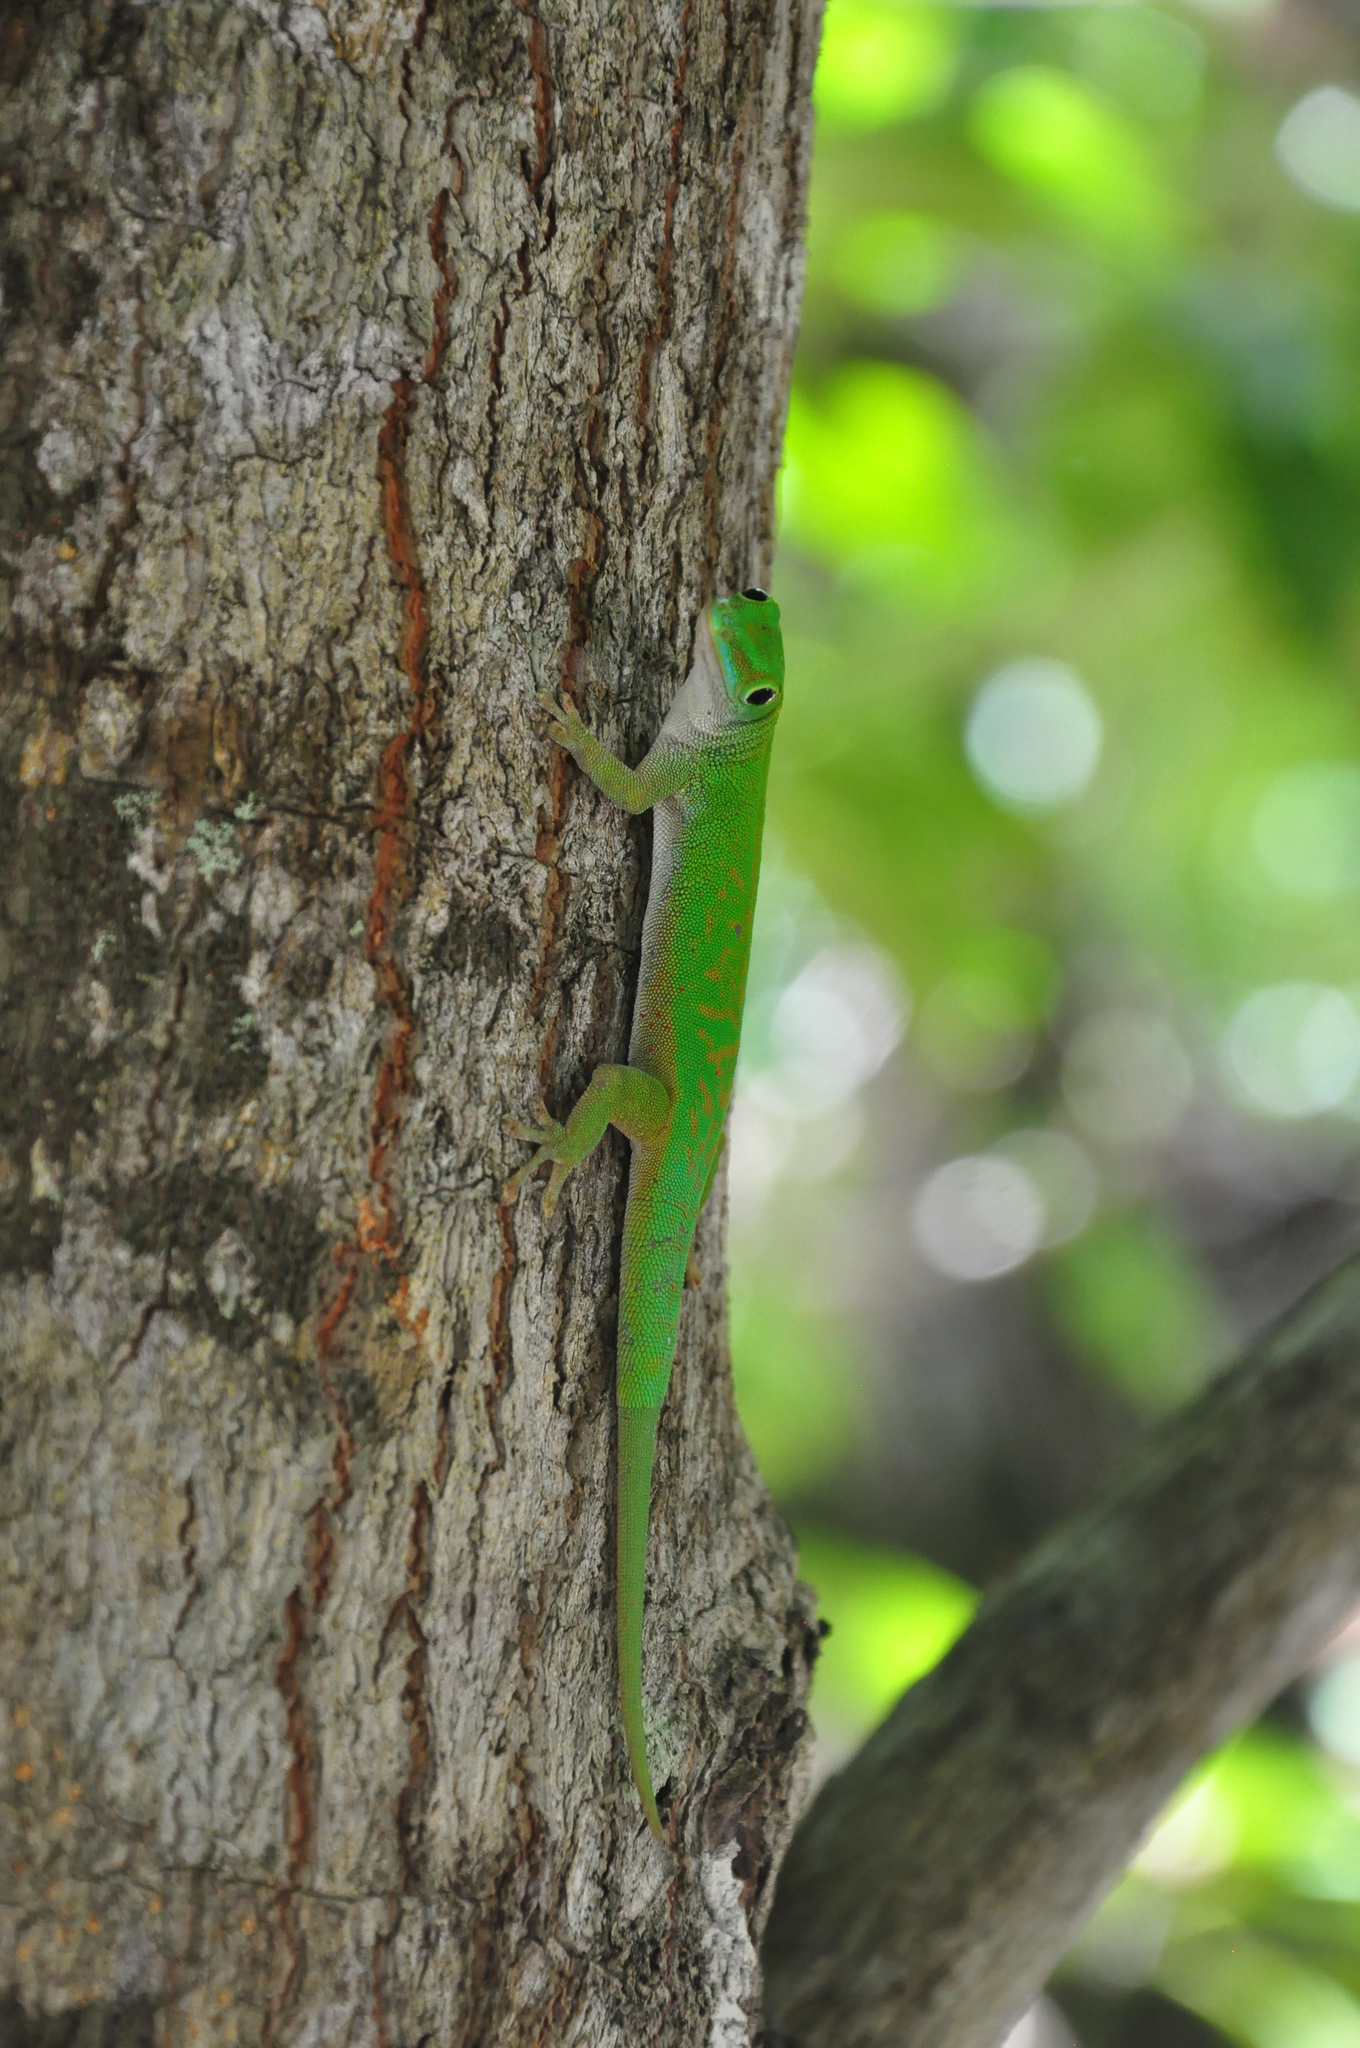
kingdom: Animalia
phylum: Chordata
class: Squamata
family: Gekkonidae
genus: Phelsuma
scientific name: Phelsuma astriata
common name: Seychelles day gecko
